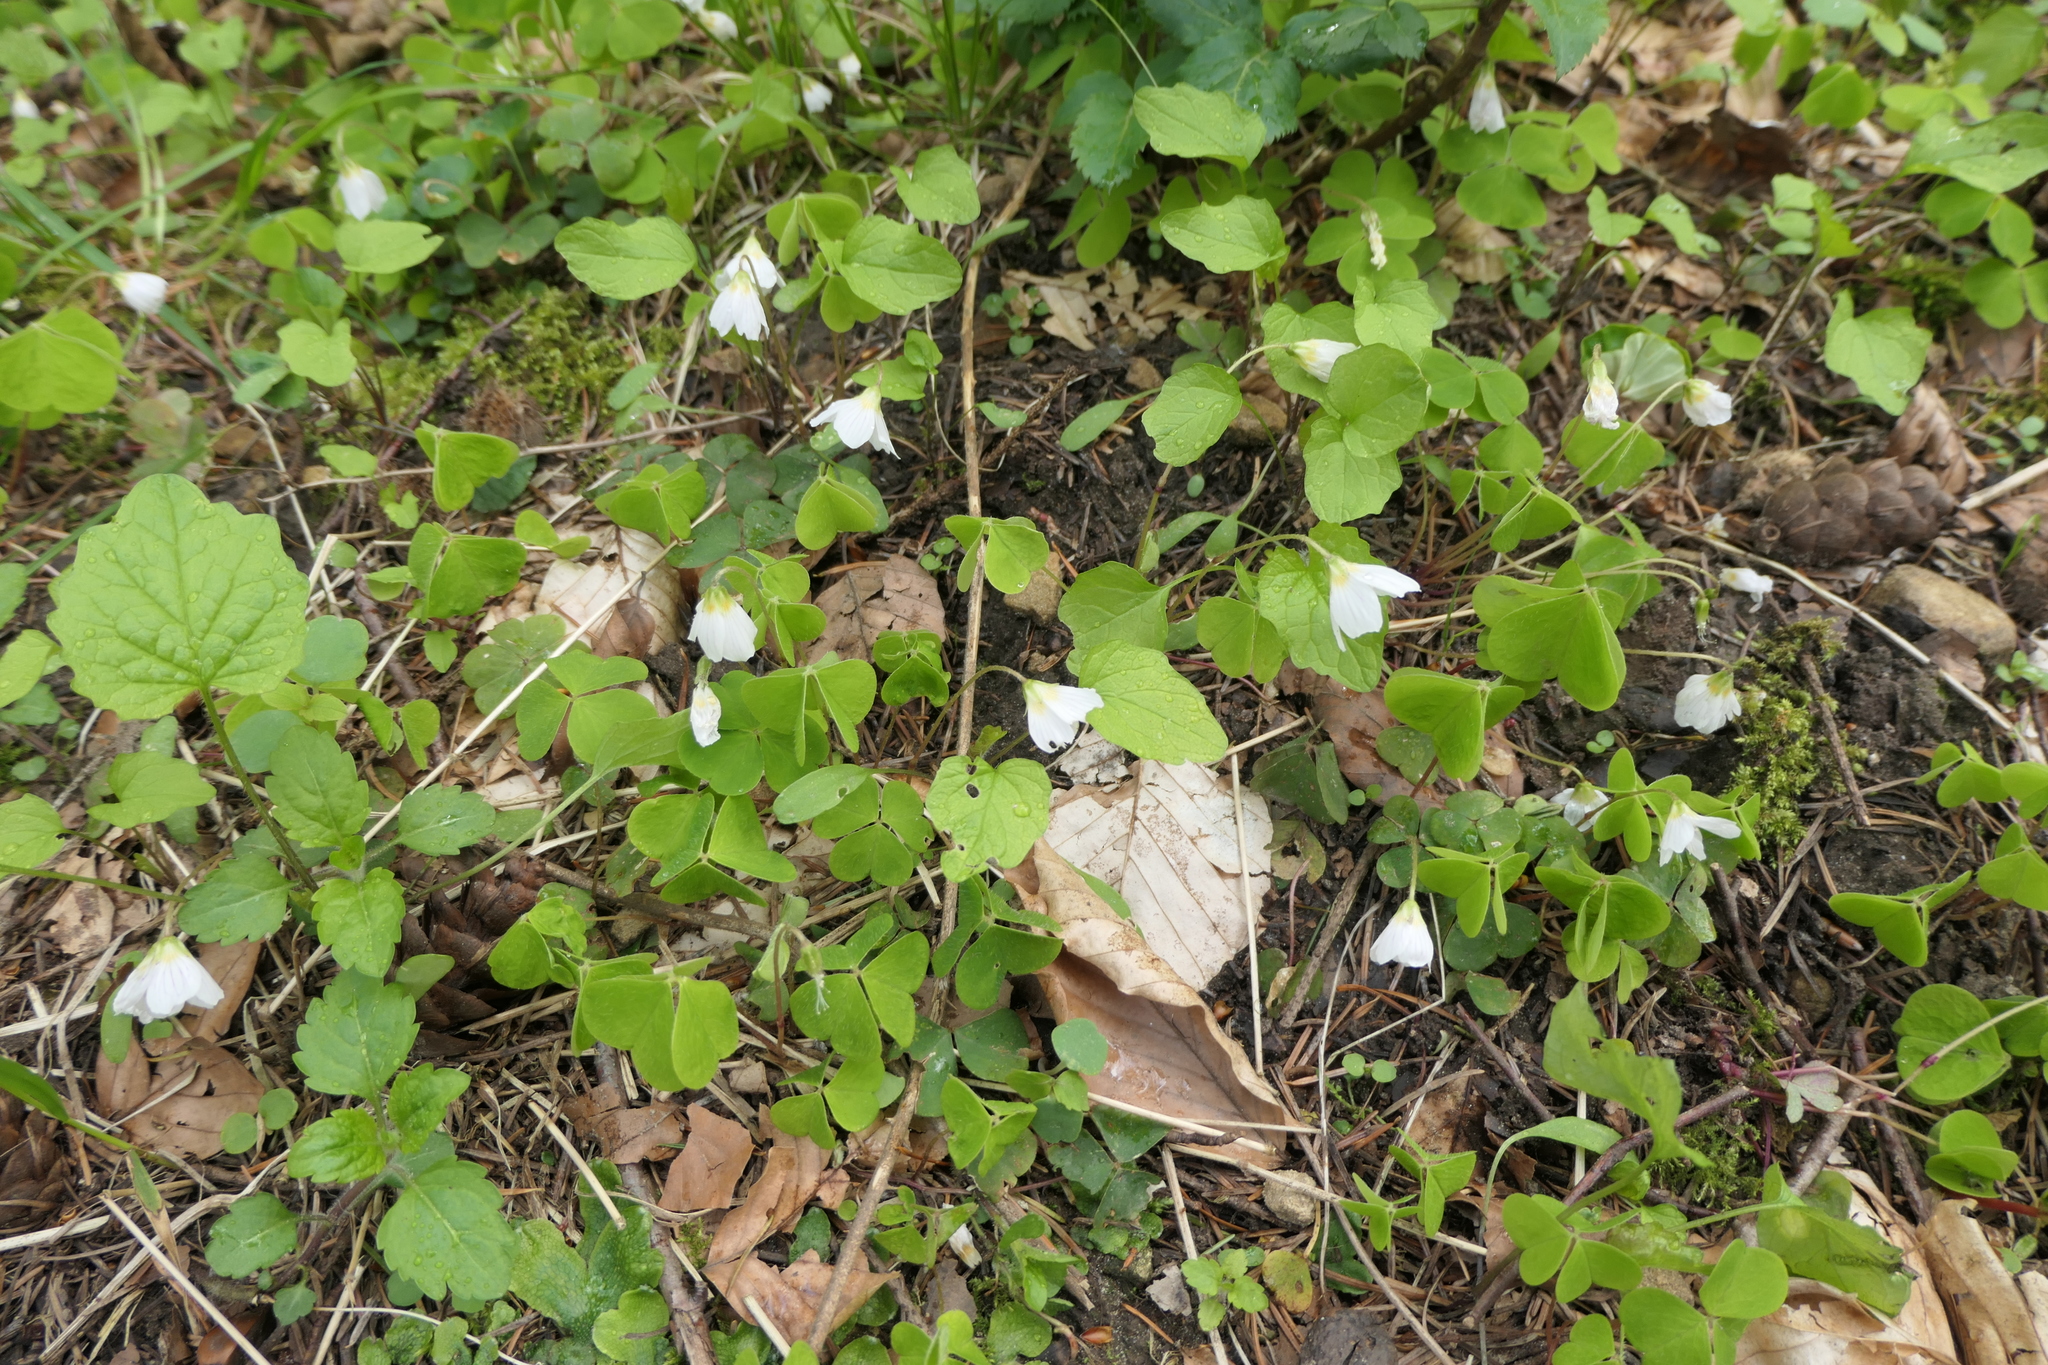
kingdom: Plantae
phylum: Tracheophyta
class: Magnoliopsida
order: Oxalidales
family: Oxalidaceae
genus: Oxalis
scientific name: Oxalis acetosella
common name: Wood-sorrel
